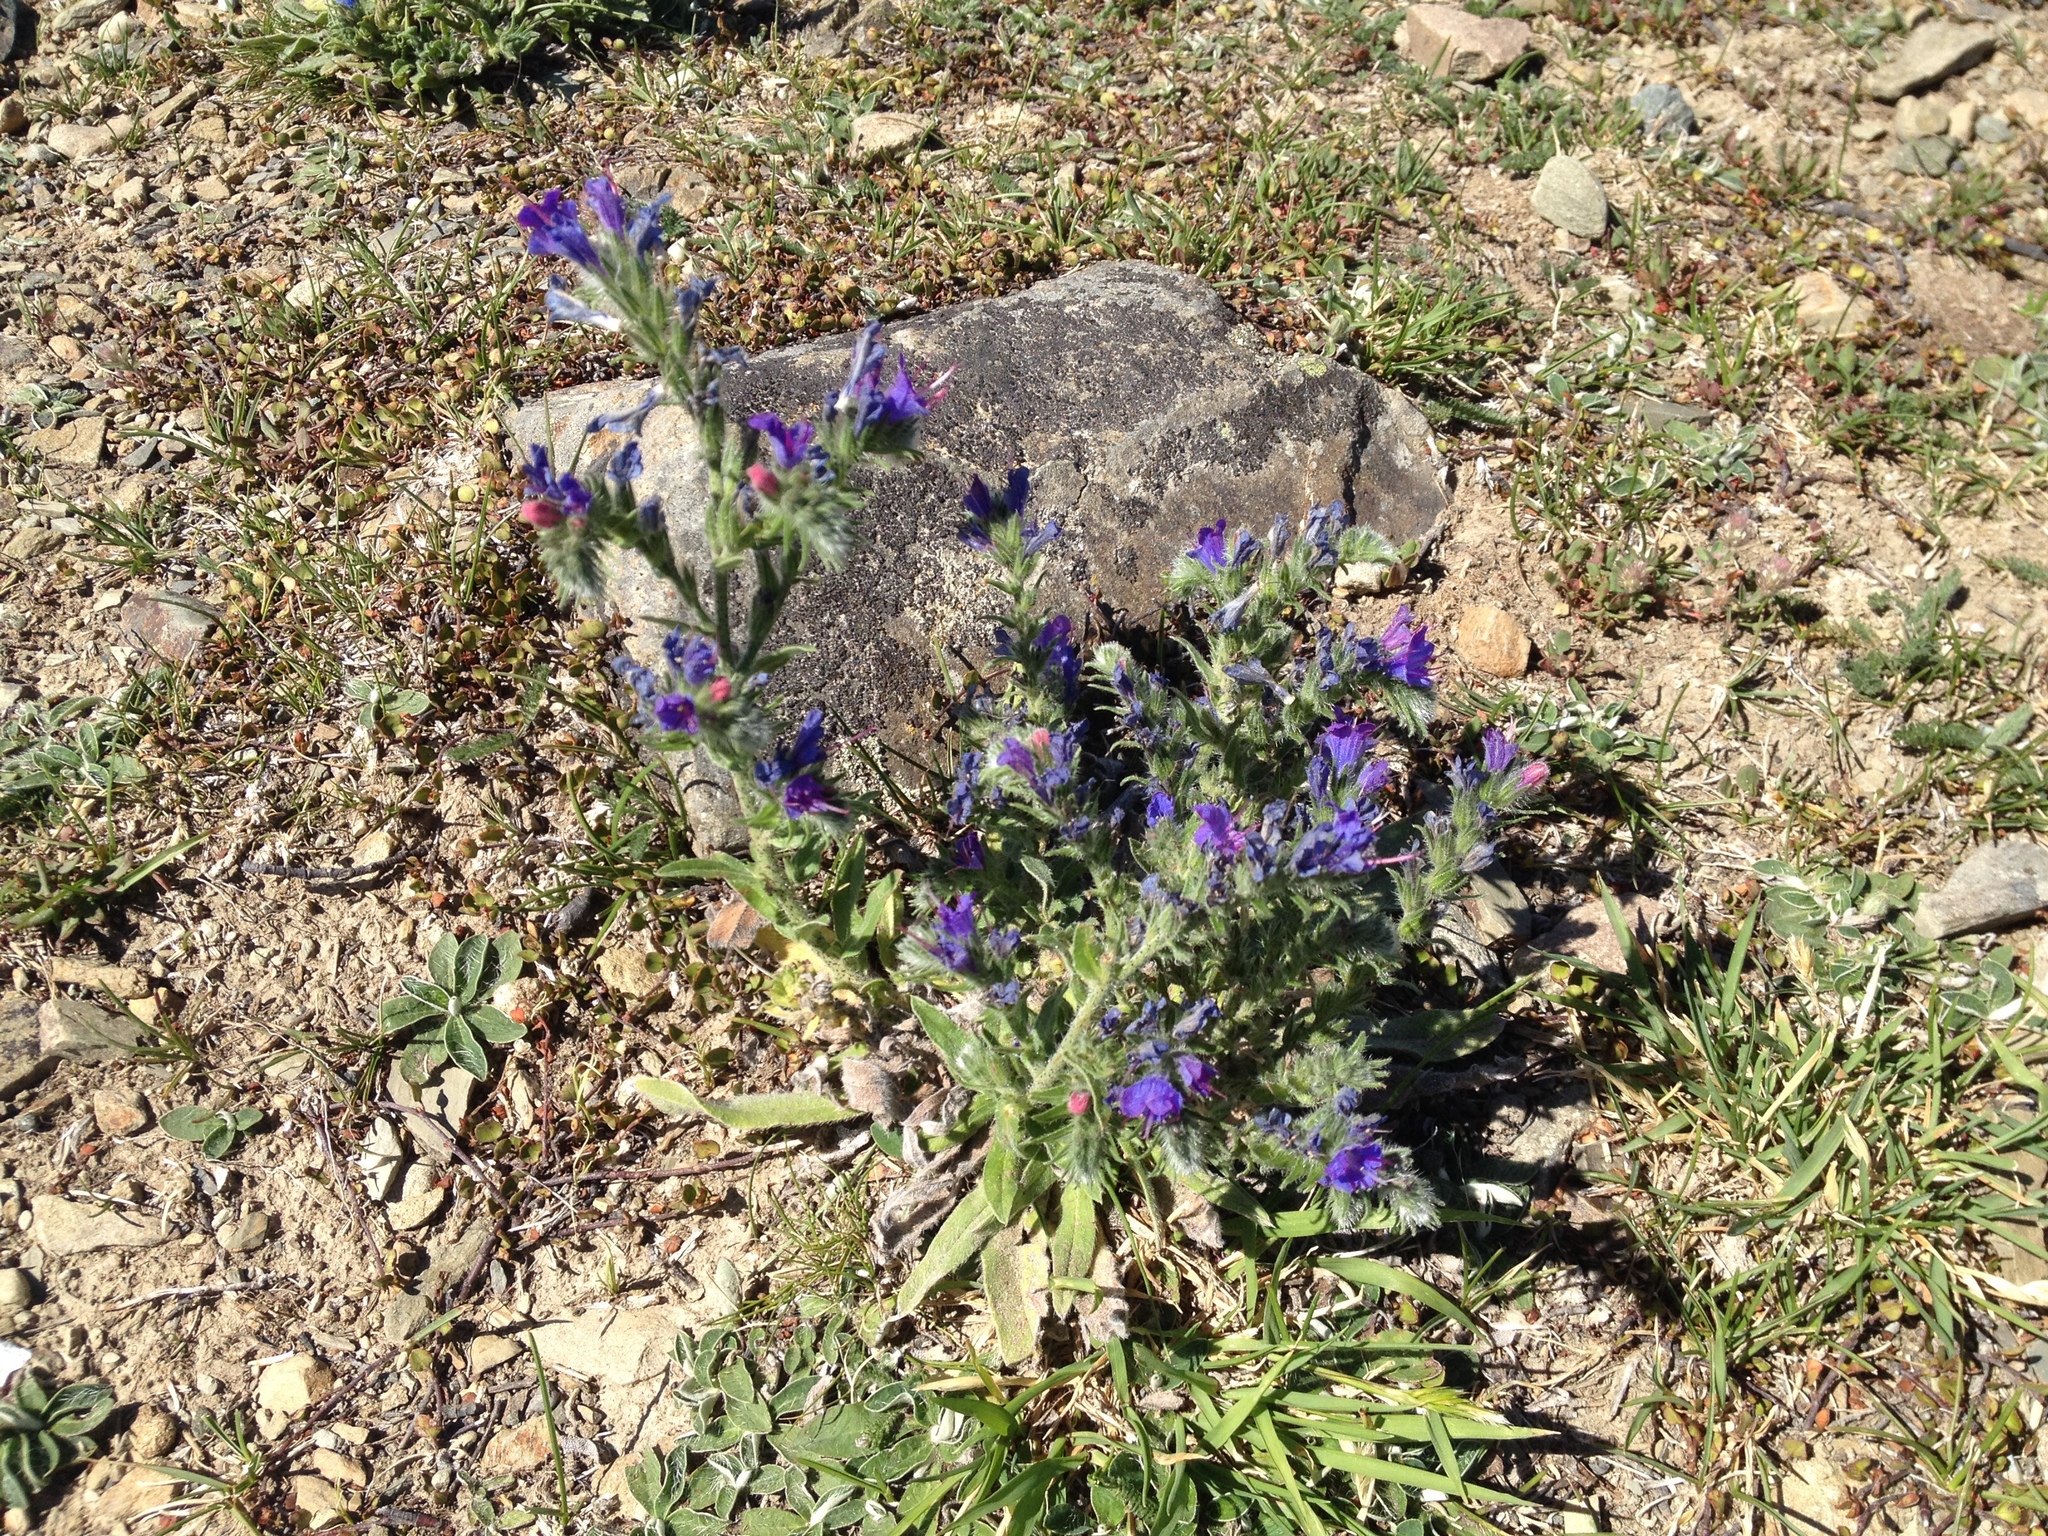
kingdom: Plantae
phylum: Tracheophyta
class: Magnoliopsida
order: Boraginales
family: Boraginaceae
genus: Echium
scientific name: Echium vulgare
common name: Common viper's bugloss
